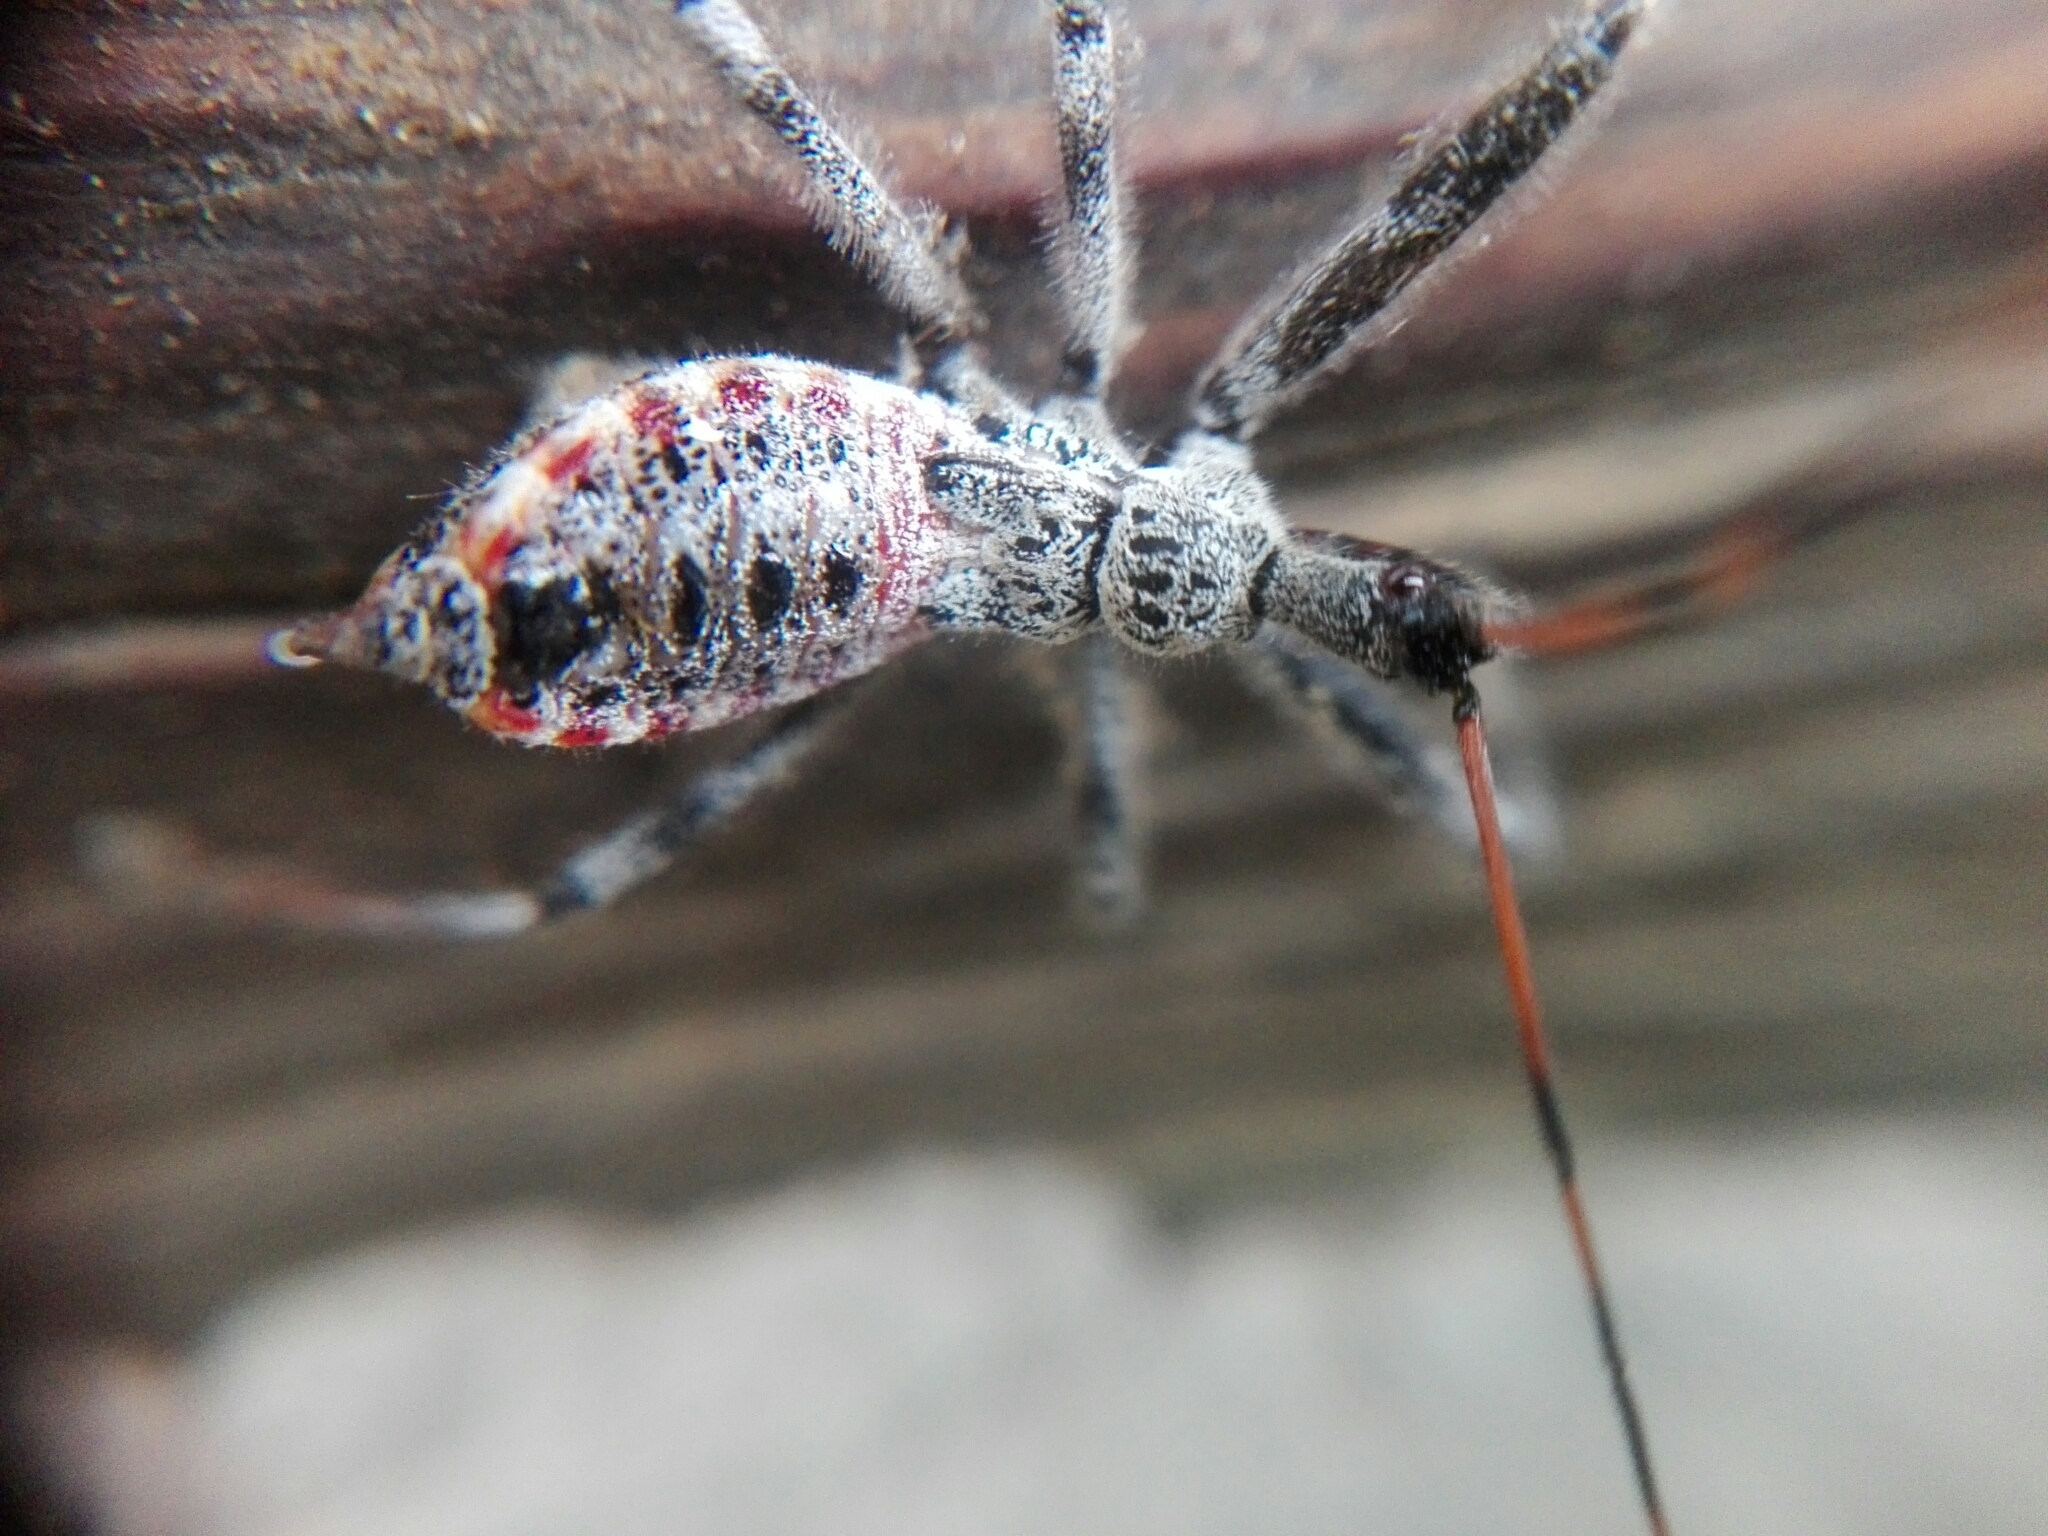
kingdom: Animalia
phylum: Arthropoda
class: Insecta
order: Hemiptera
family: Reduviidae
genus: Arilus
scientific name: Arilus cristatus
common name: North american wheel bug
